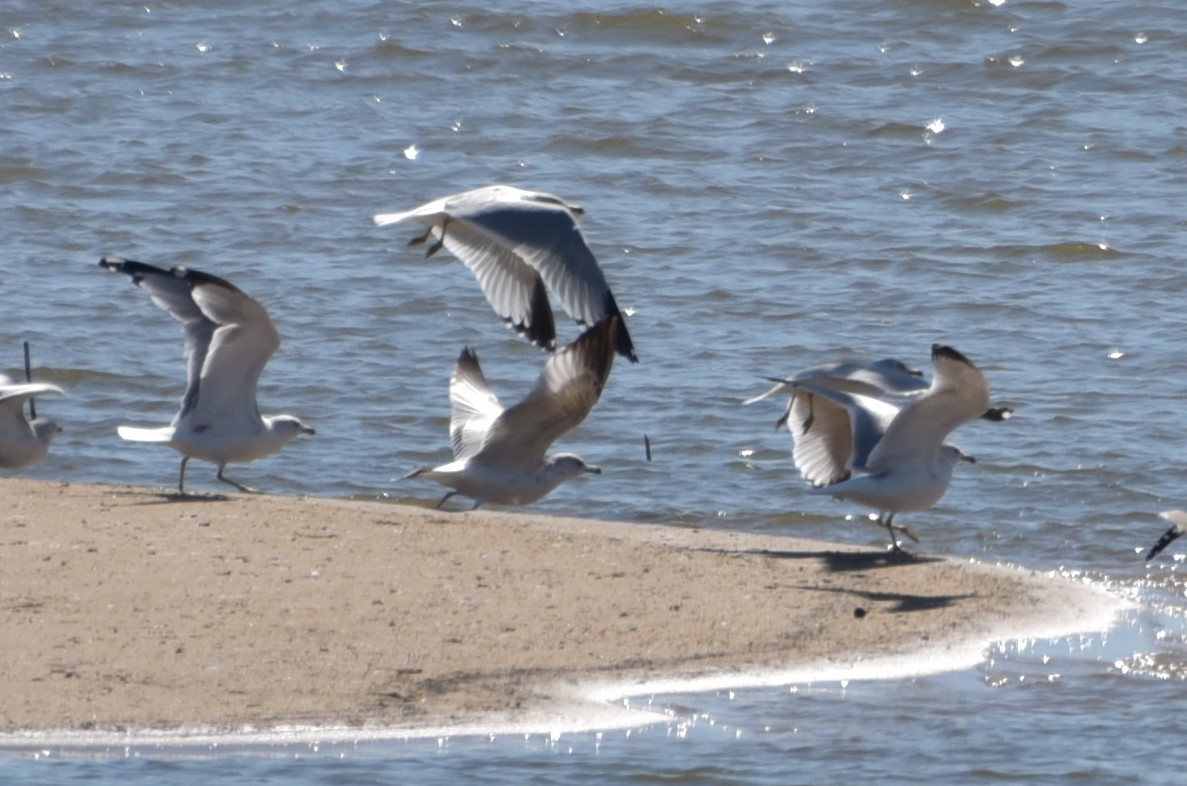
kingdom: Animalia
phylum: Chordata
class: Aves
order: Charadriiformes
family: Laridae
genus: Larus
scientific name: Larus delawarensis
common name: Ring-billed gull
